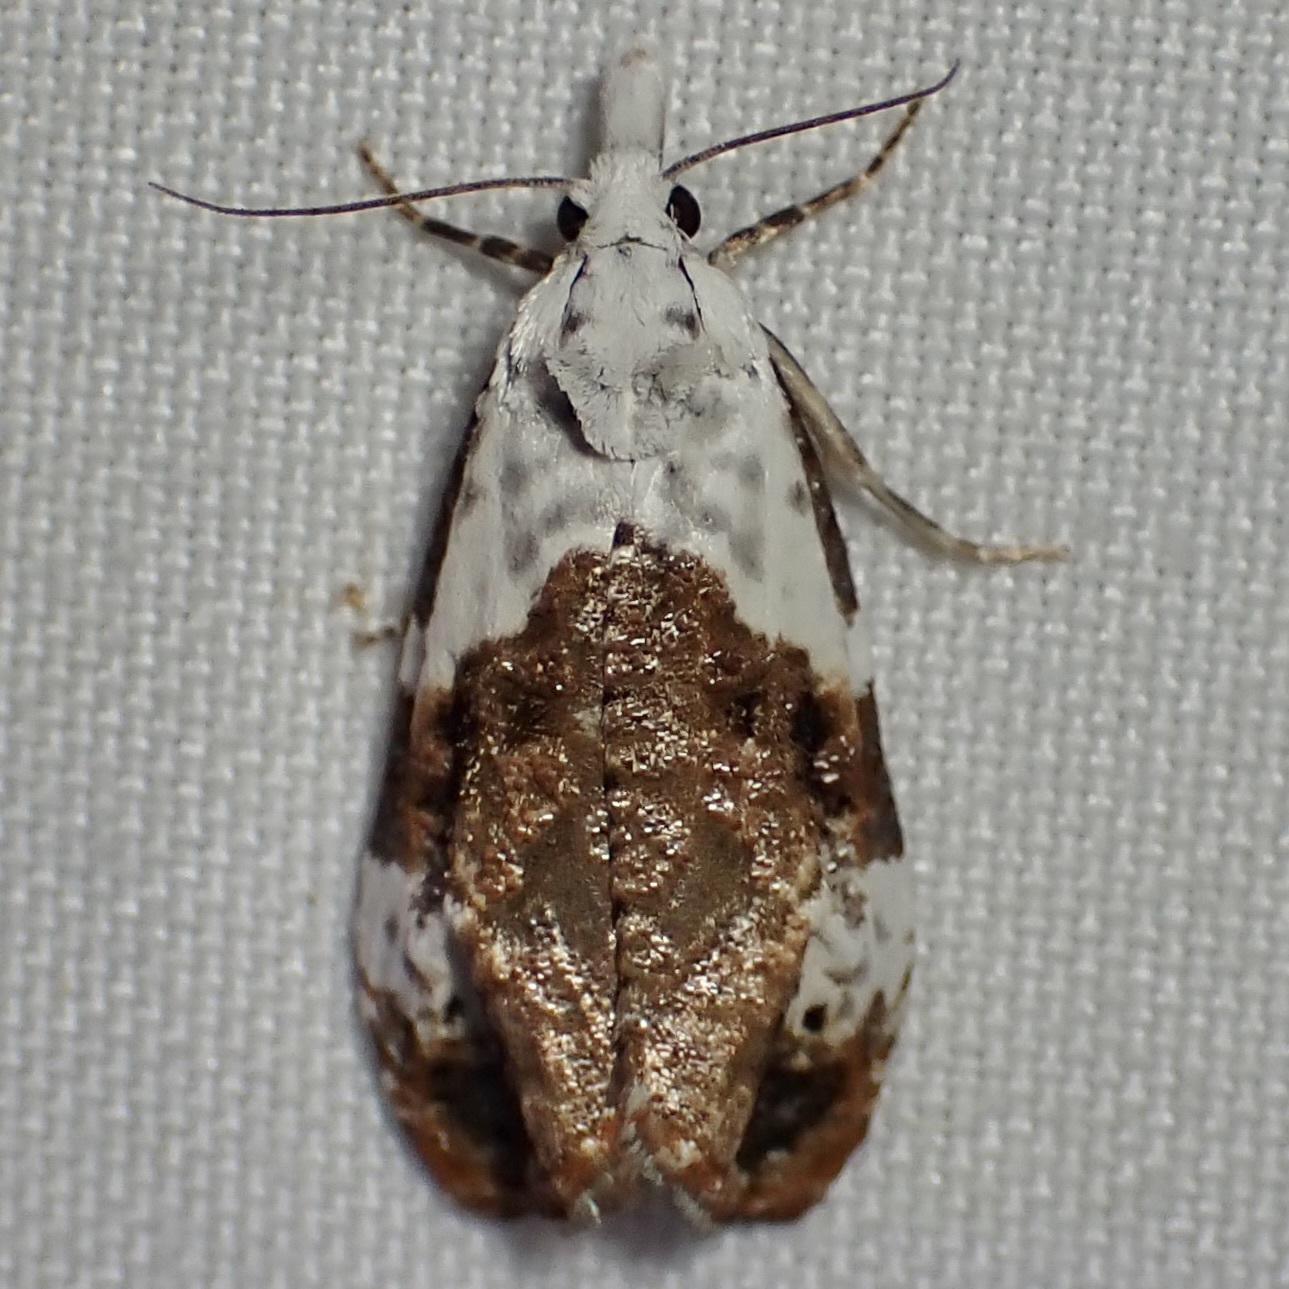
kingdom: Animalia
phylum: Arthropoda
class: Insecta
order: Lepidoptera
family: Tortricidae
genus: Phtheochroa
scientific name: Phtheochroa huachucana
